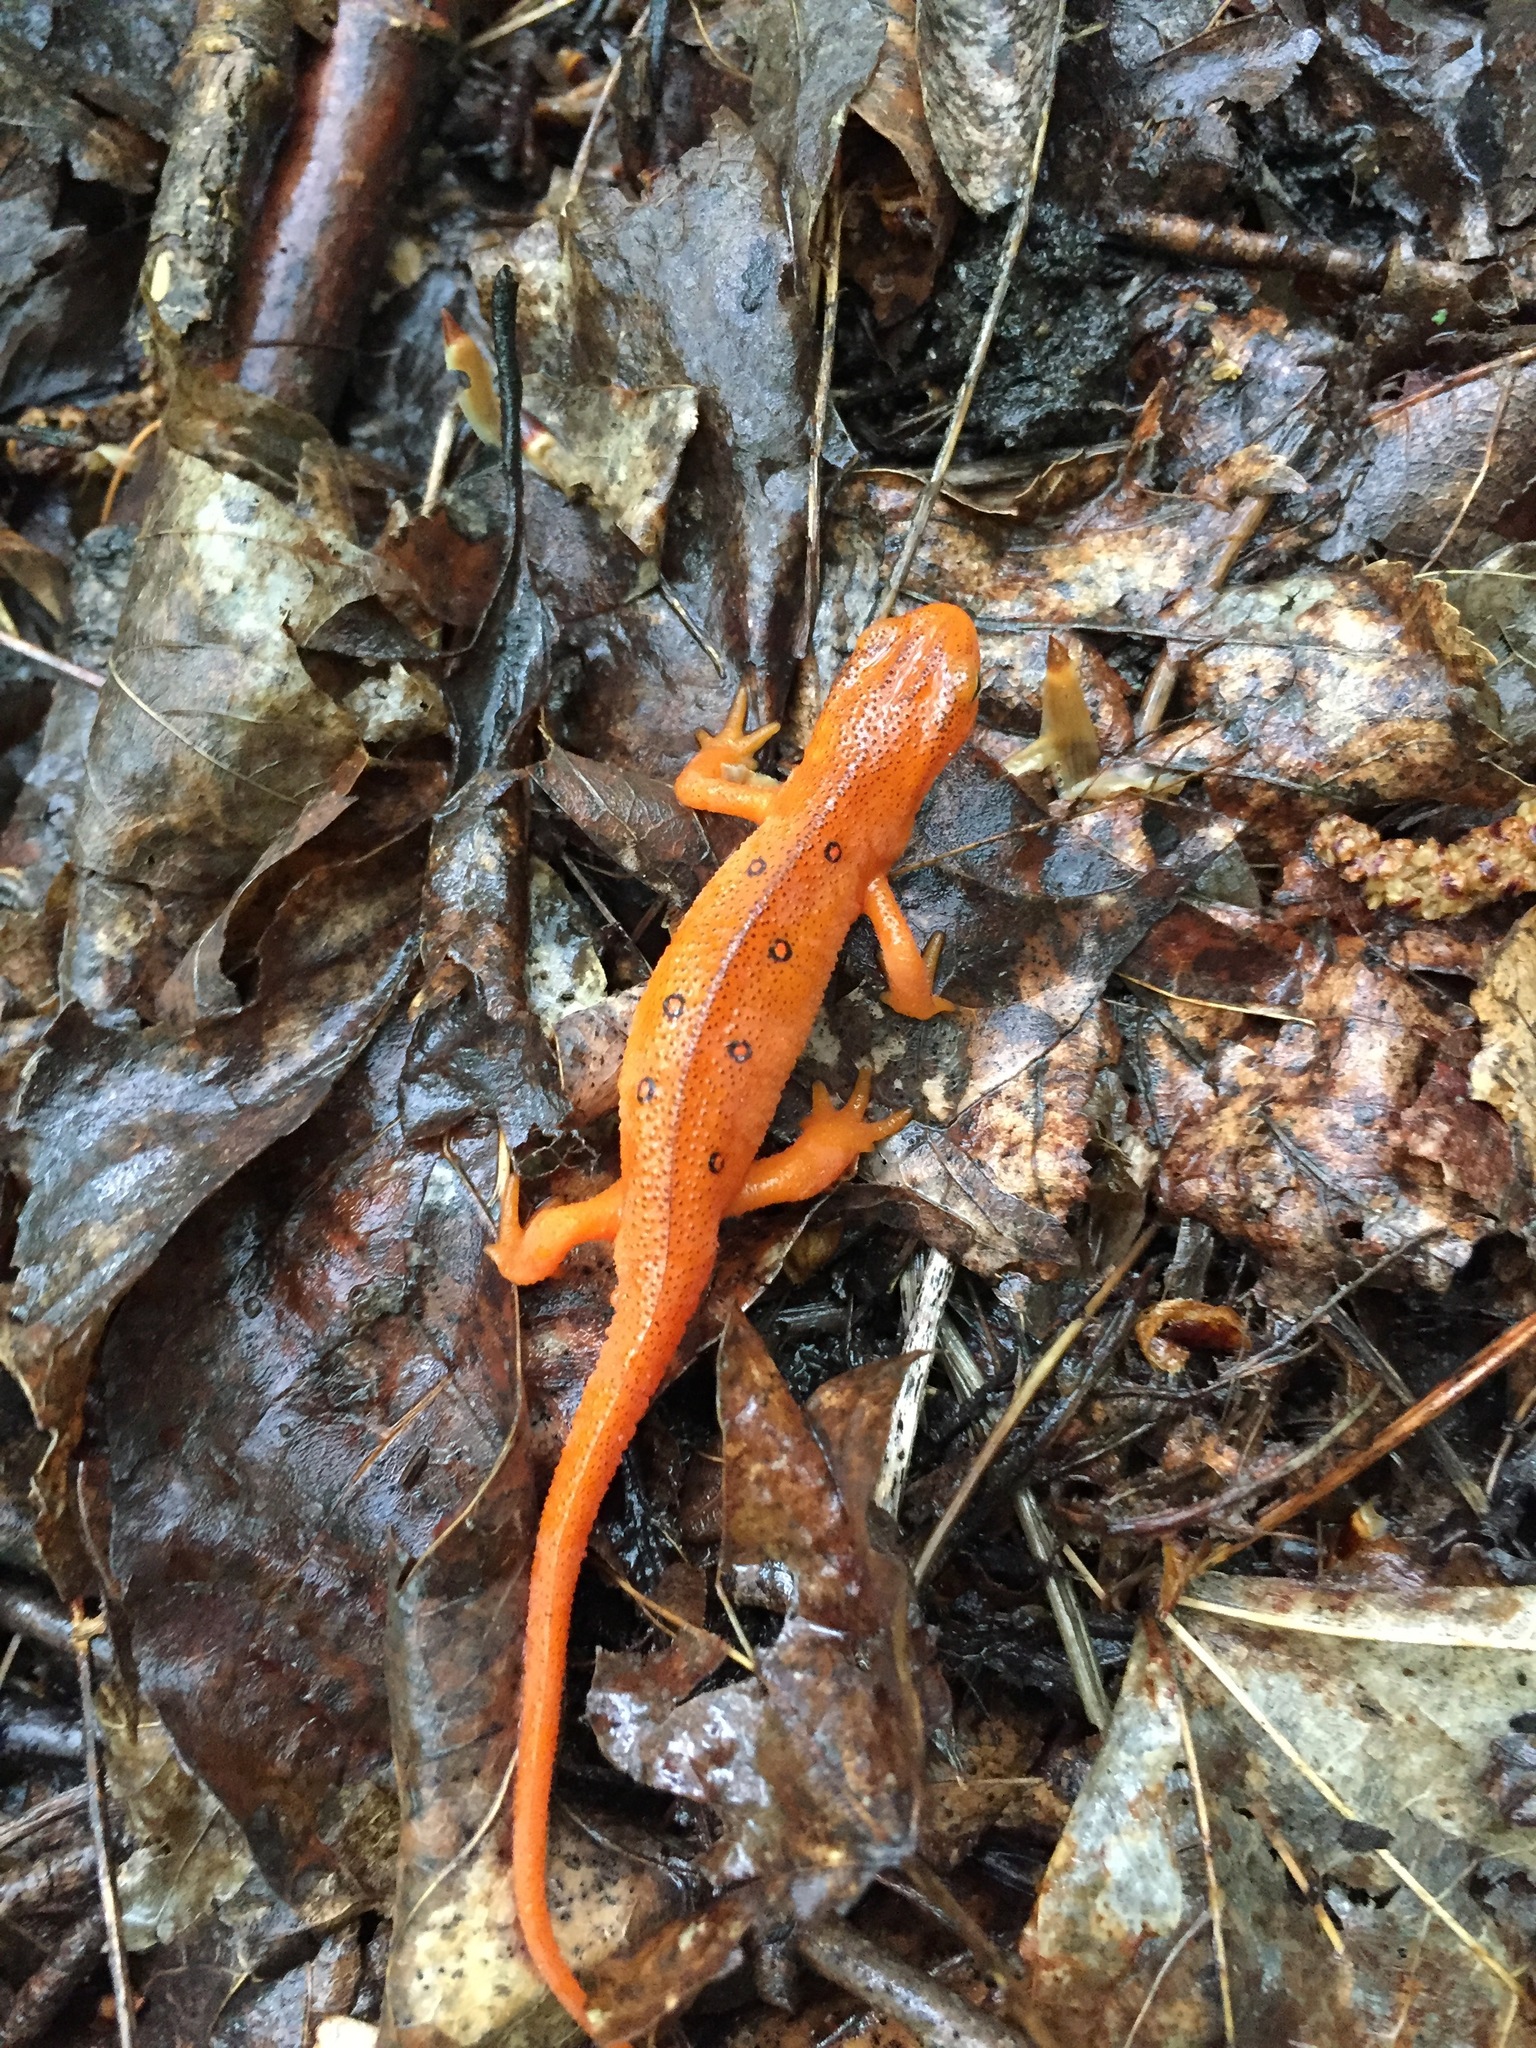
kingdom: Animalia
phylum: Chordata
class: Amphibia
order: Caudata
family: Salamandridae
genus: Notophthalmus
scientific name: Notophthalmus viridescens
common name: Eastern newt
